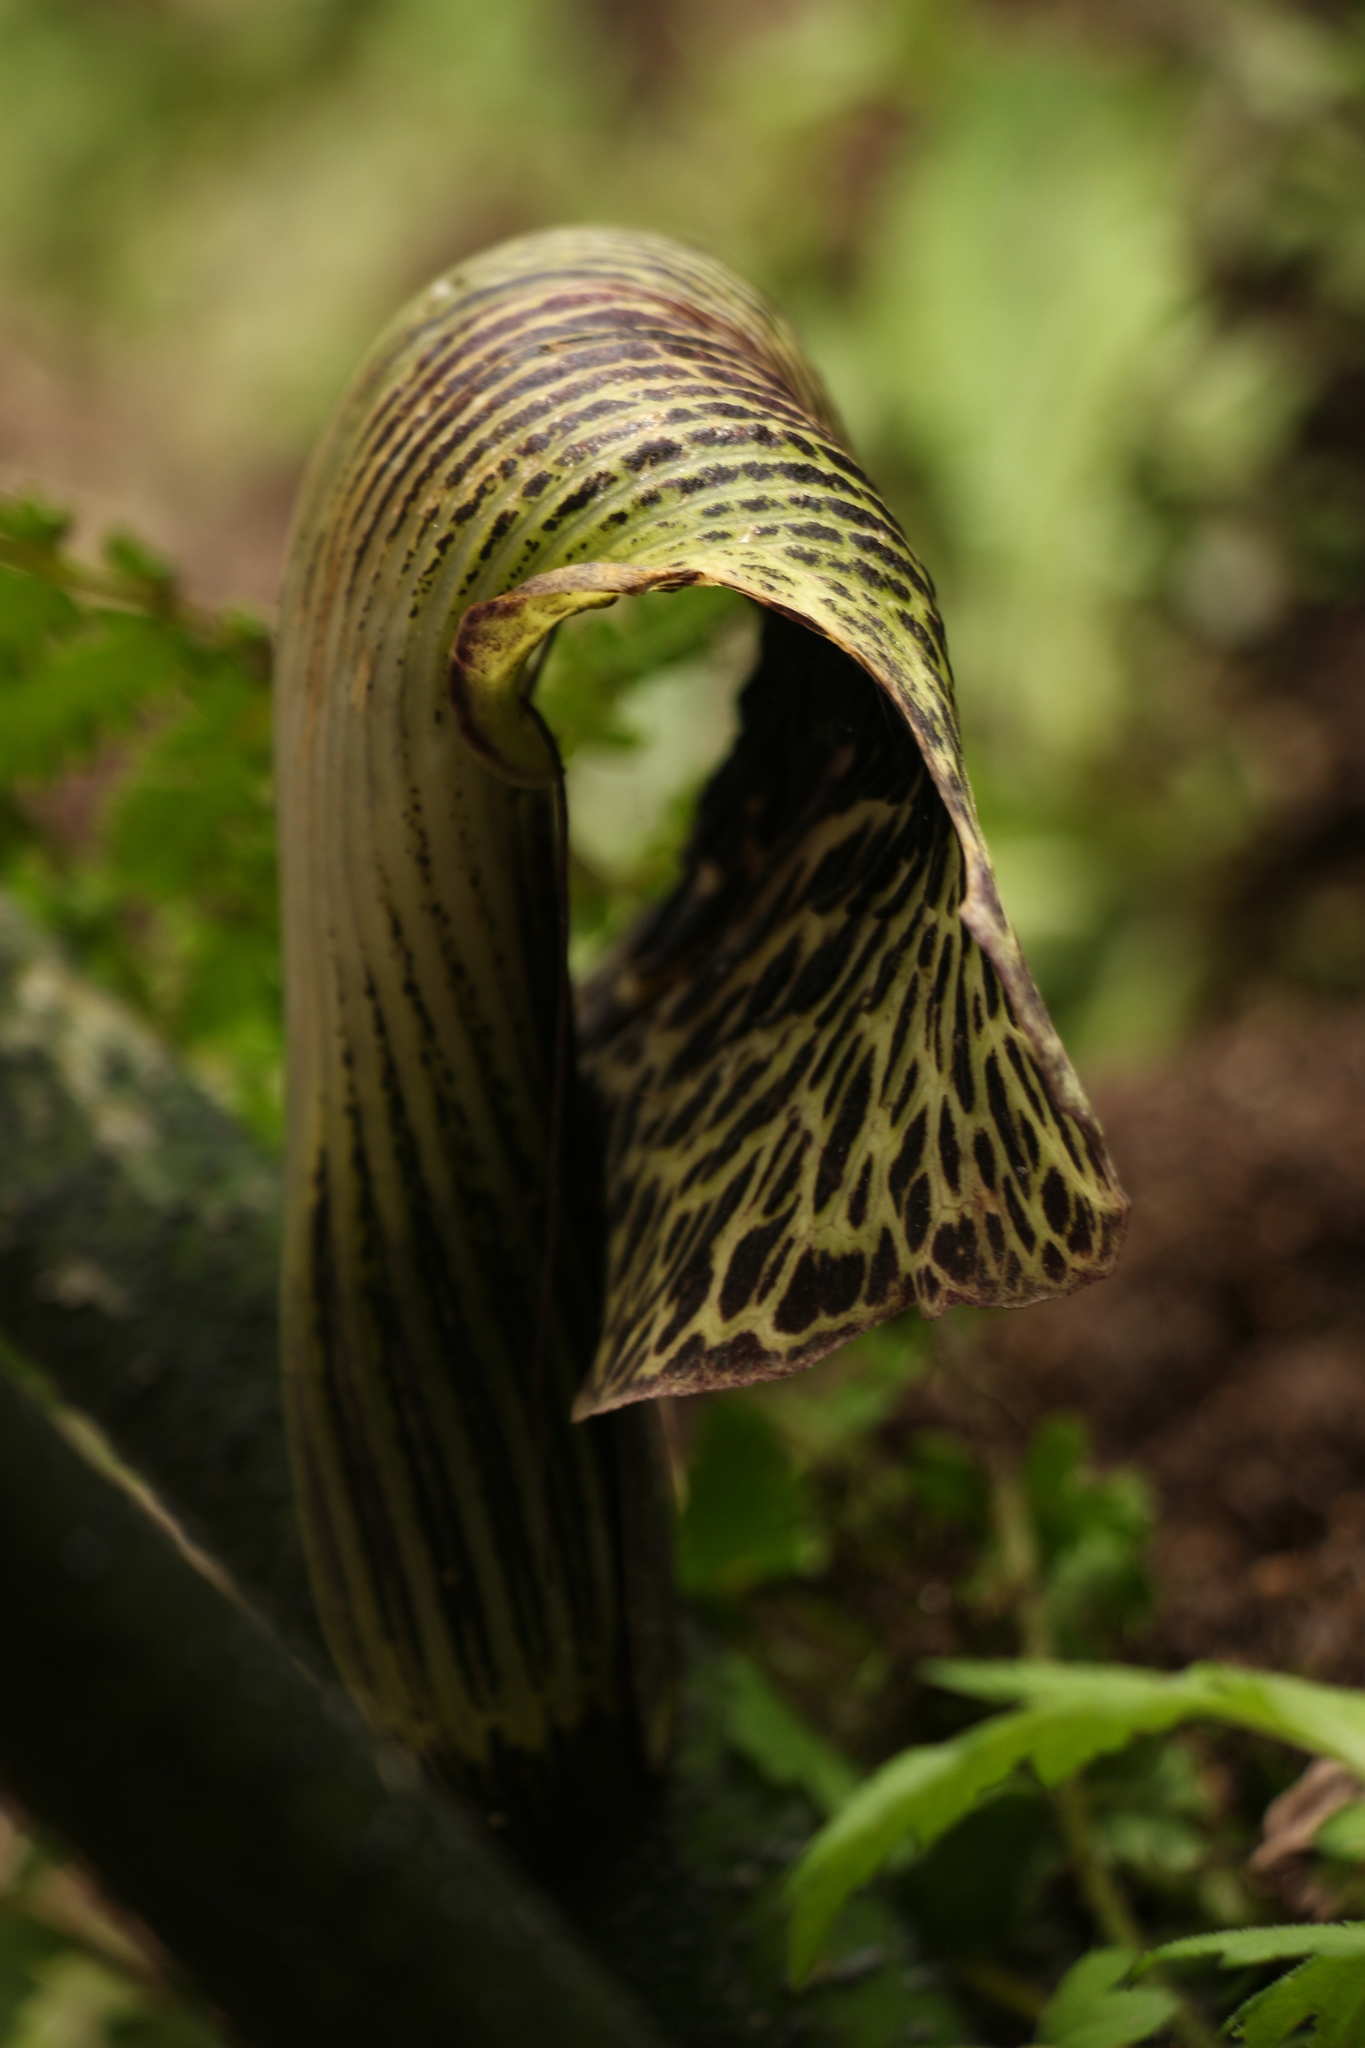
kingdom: Plantae
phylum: Tracheophyta
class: Liliopsida
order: Alismatales
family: Araceae
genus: Arisaema
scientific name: Arisaema griffithii
